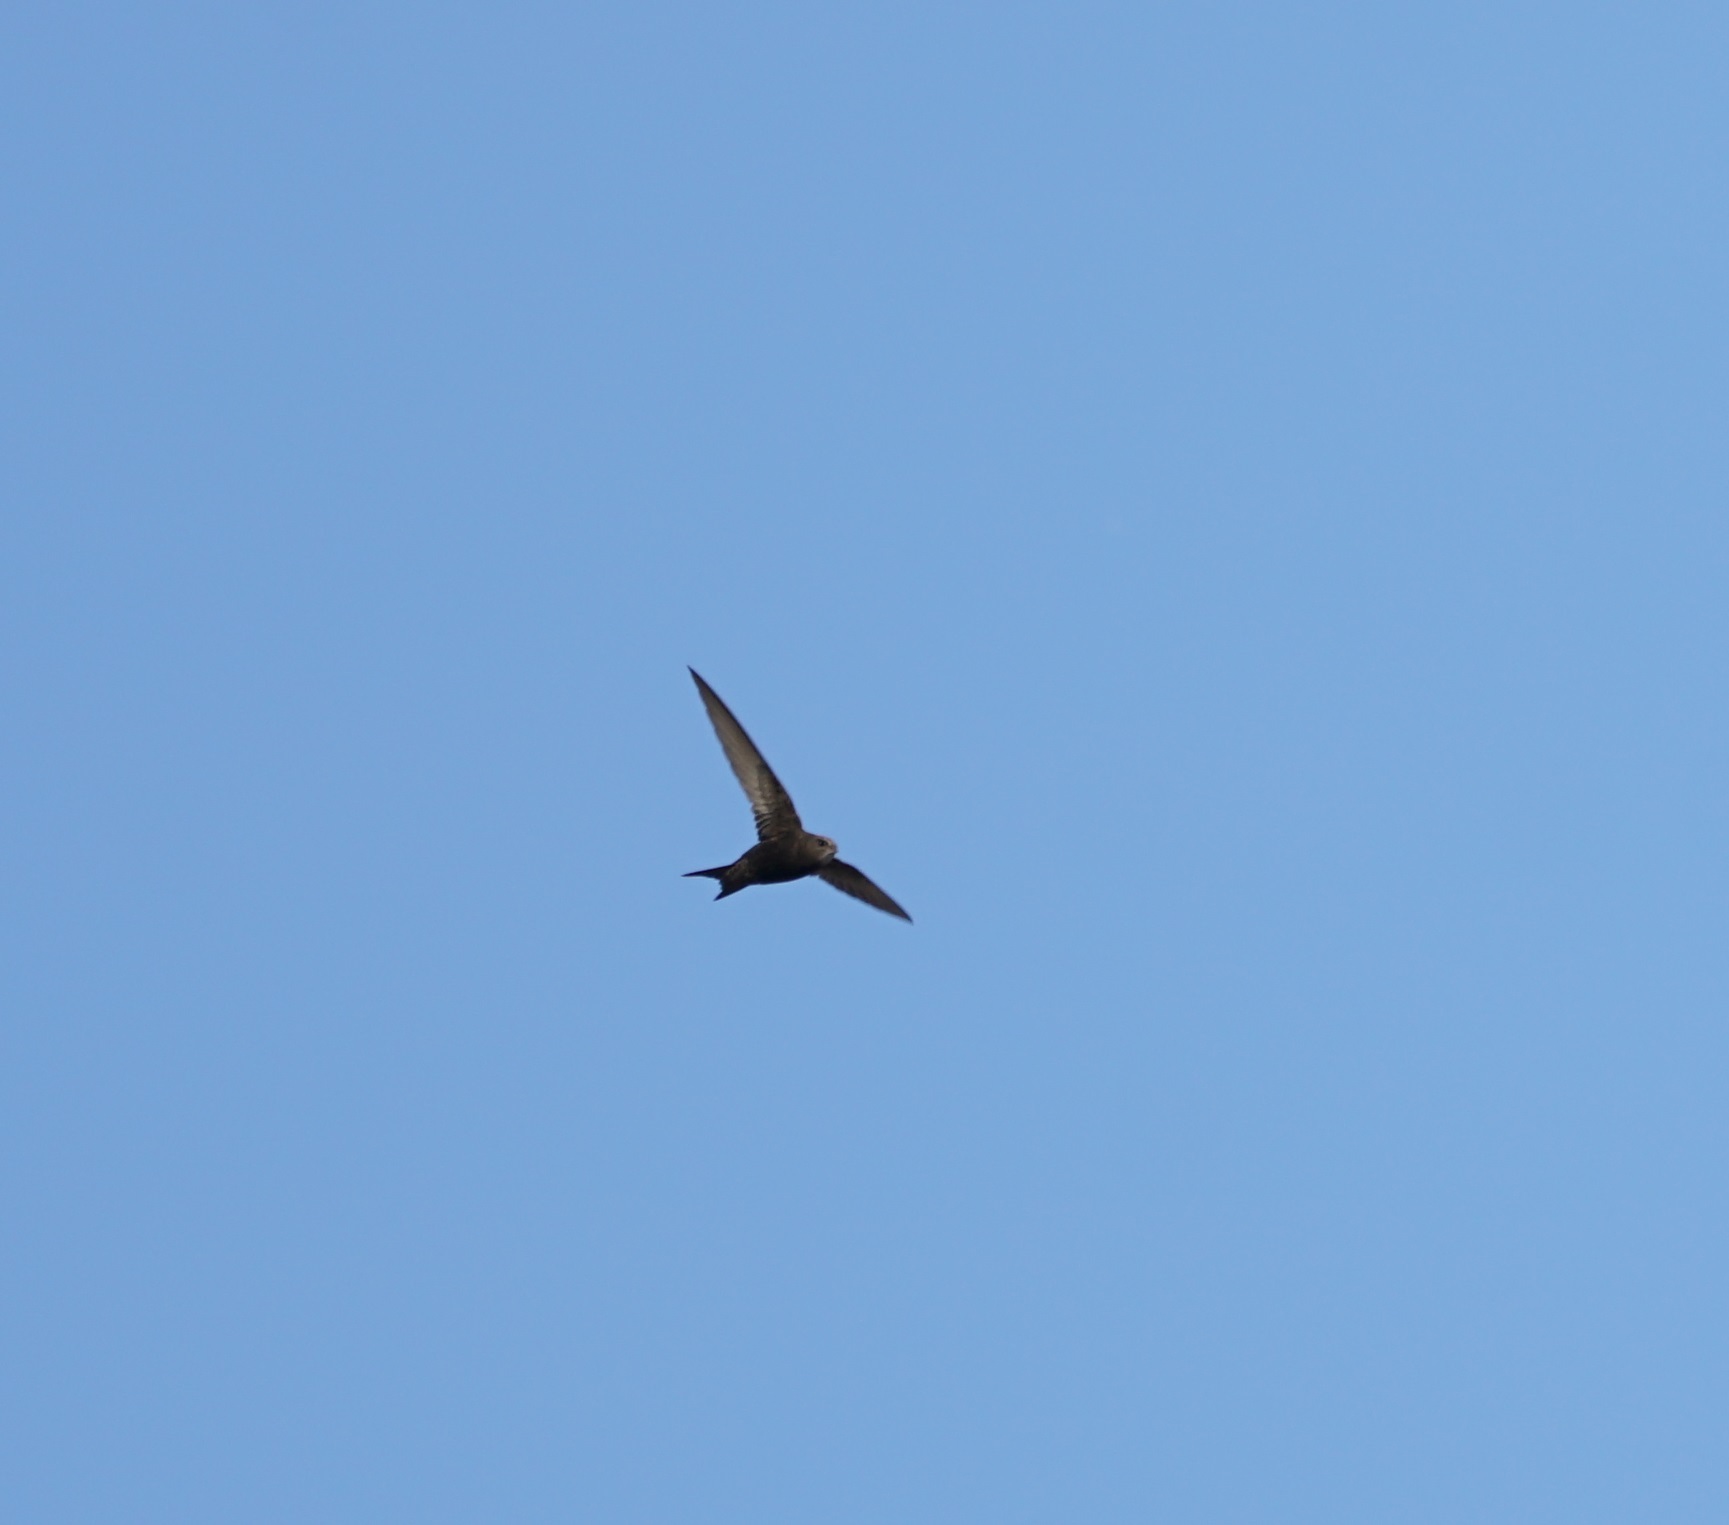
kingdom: Animalia
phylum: Chordata
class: Aves
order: Apodiformes
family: Apodidae
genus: Apus
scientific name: Apus apus
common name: Common swift
